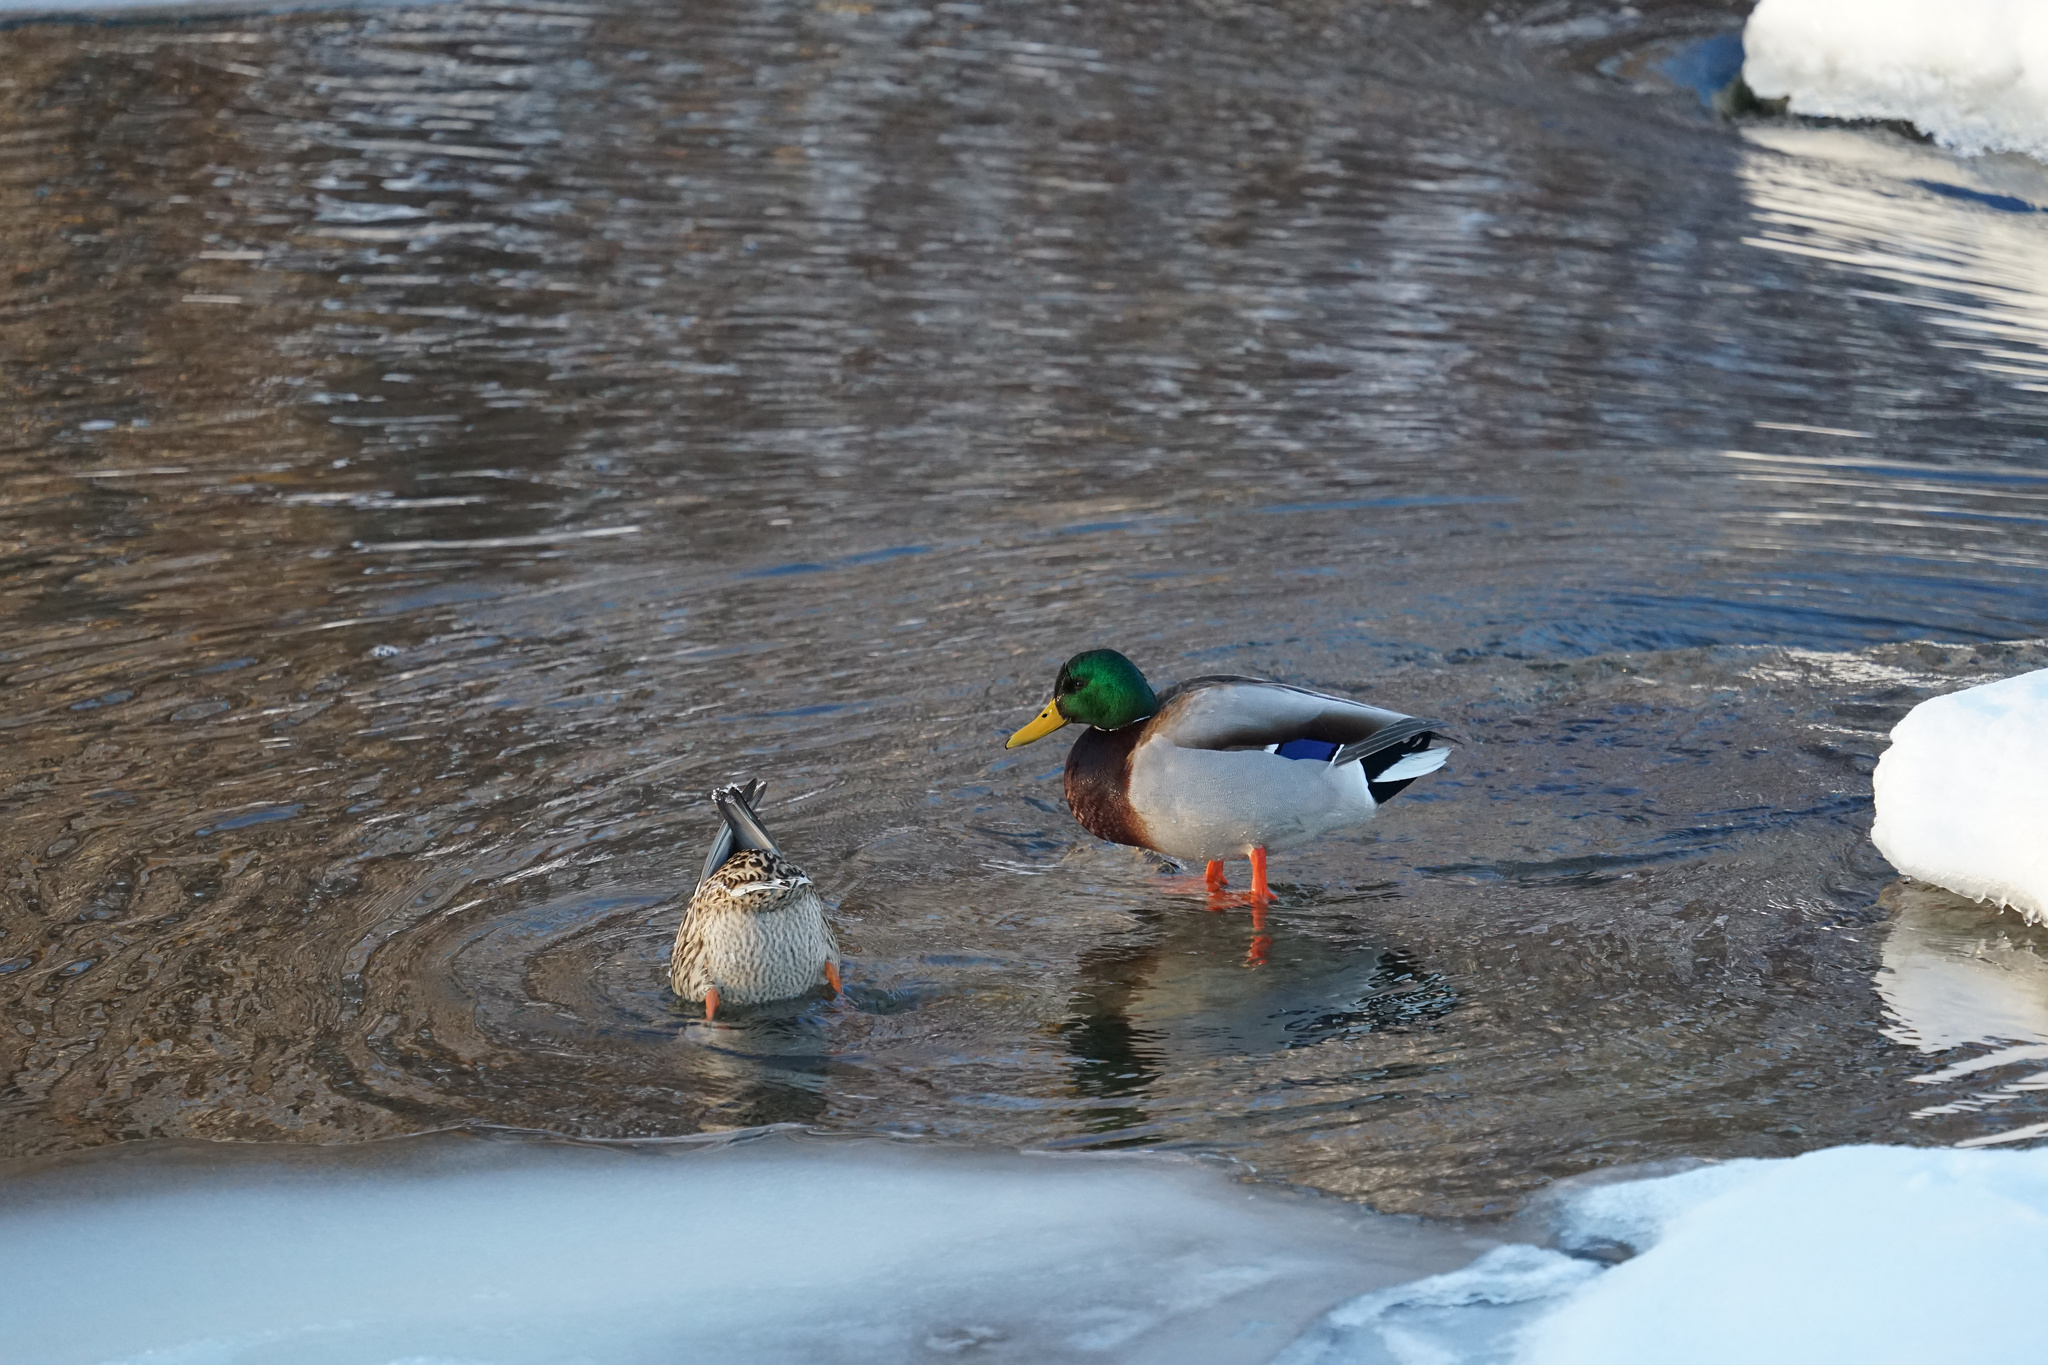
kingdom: Animalia
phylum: Chordata
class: Aves
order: Anseriformes
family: Anatidae
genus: Anas
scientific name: Anas platyrhynchos
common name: Mallard
